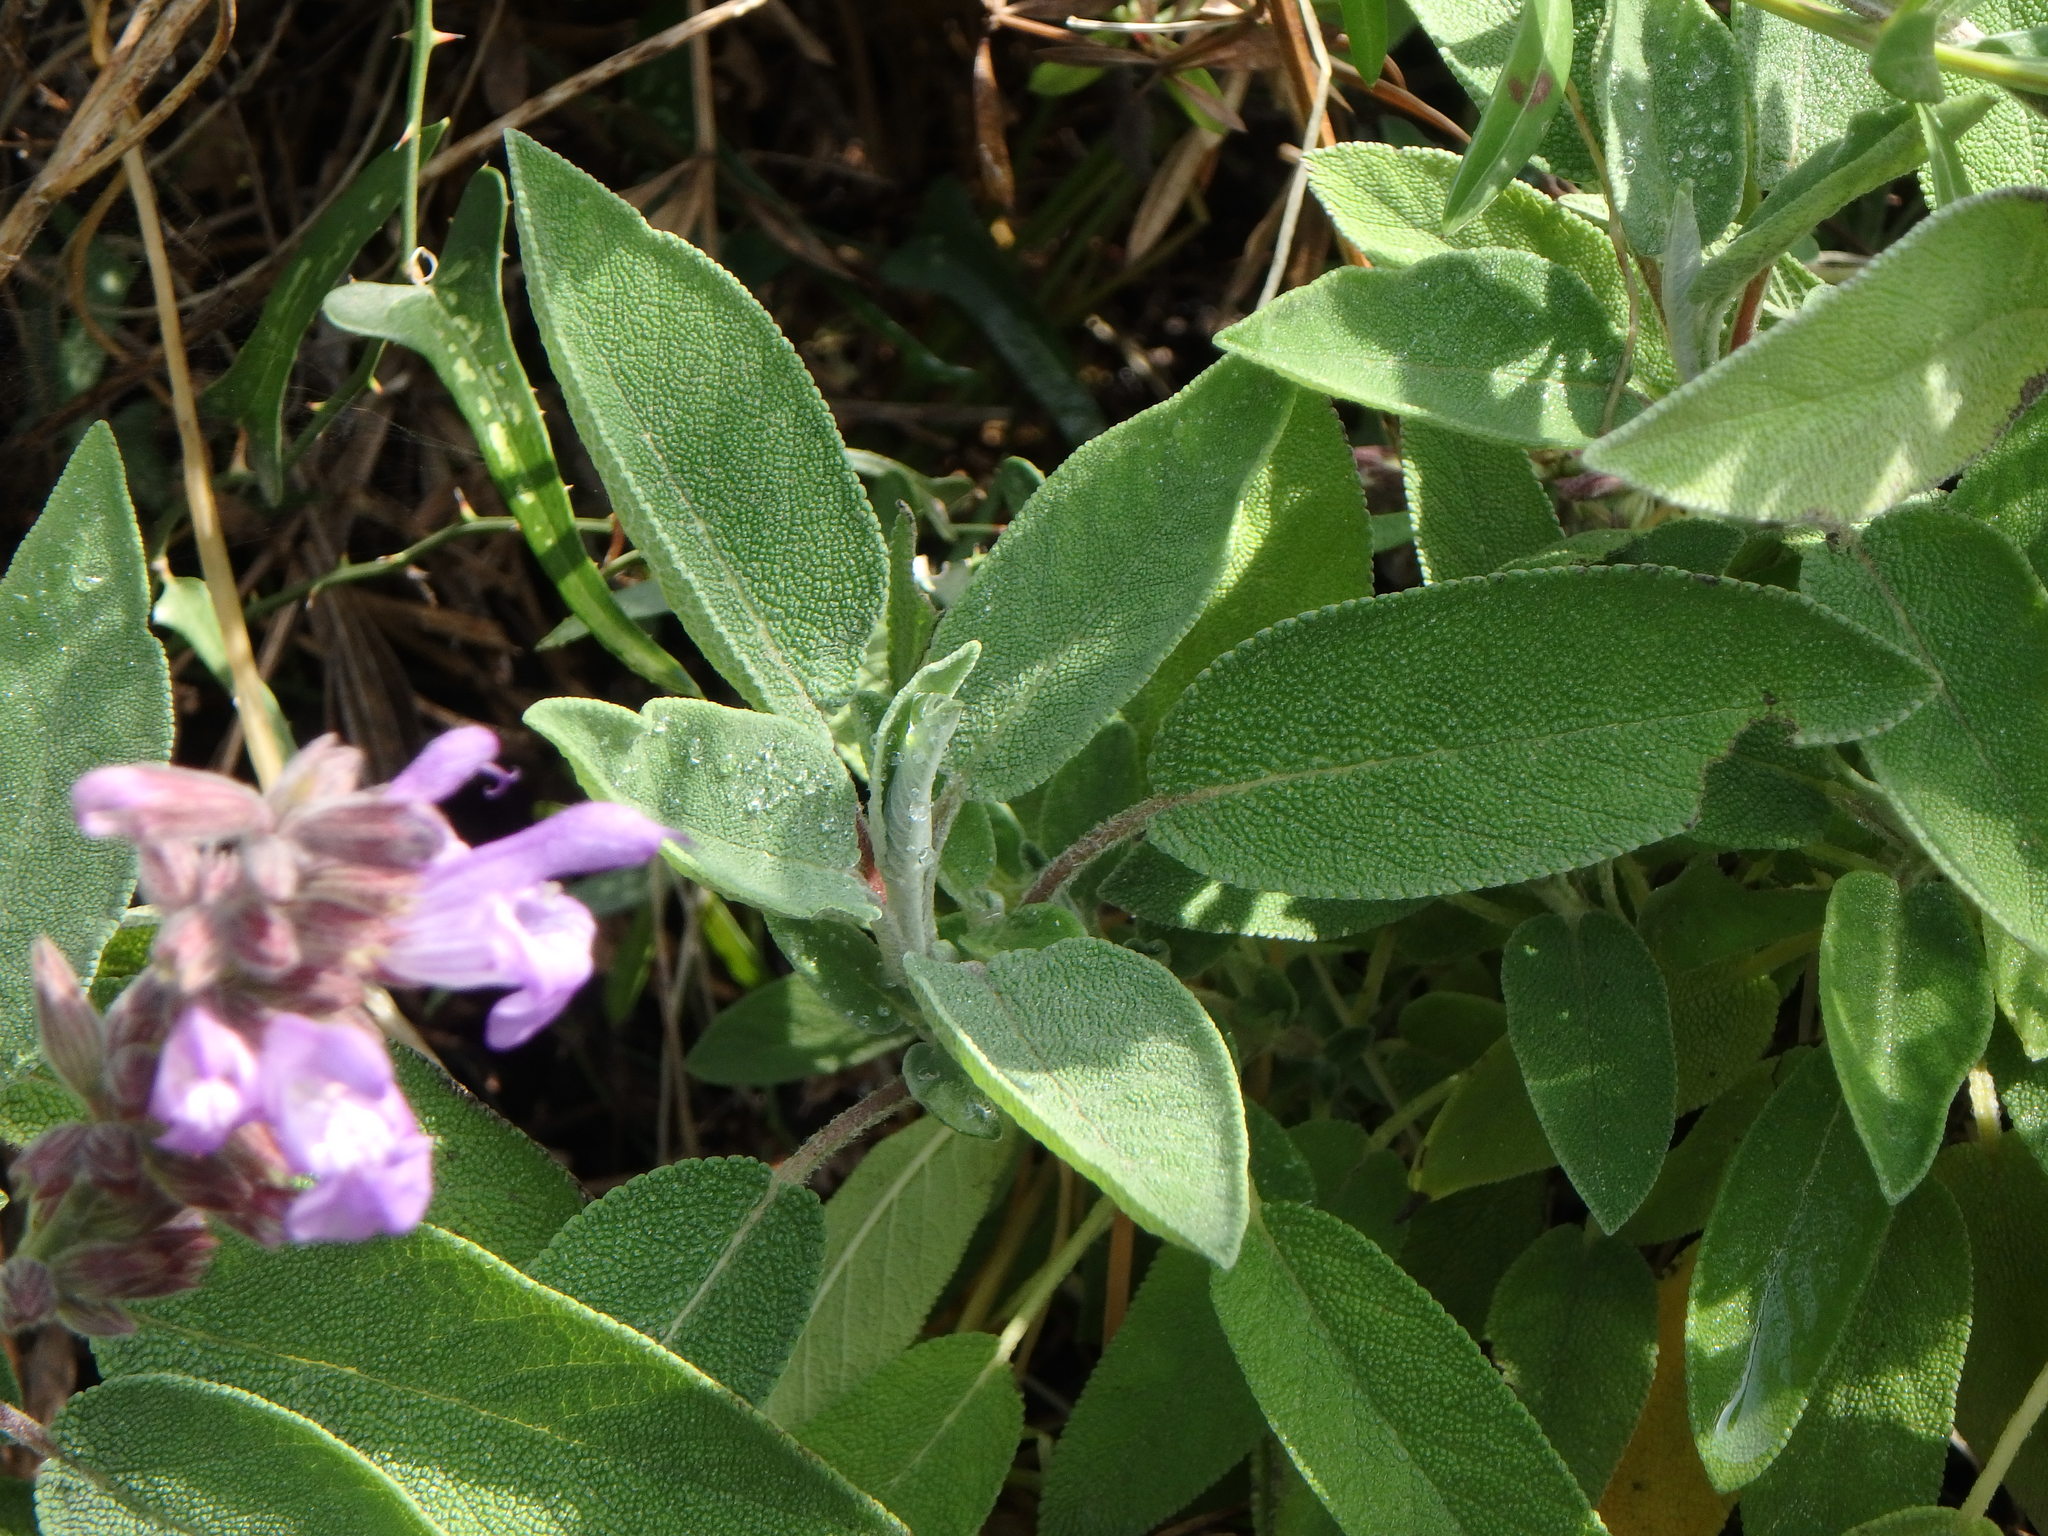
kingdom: Plantae
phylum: Tracheophyta
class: Magnoliopsida
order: Lamiales
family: Lamiaceae
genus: Salvia
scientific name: Salvia officinalis
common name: Sage
